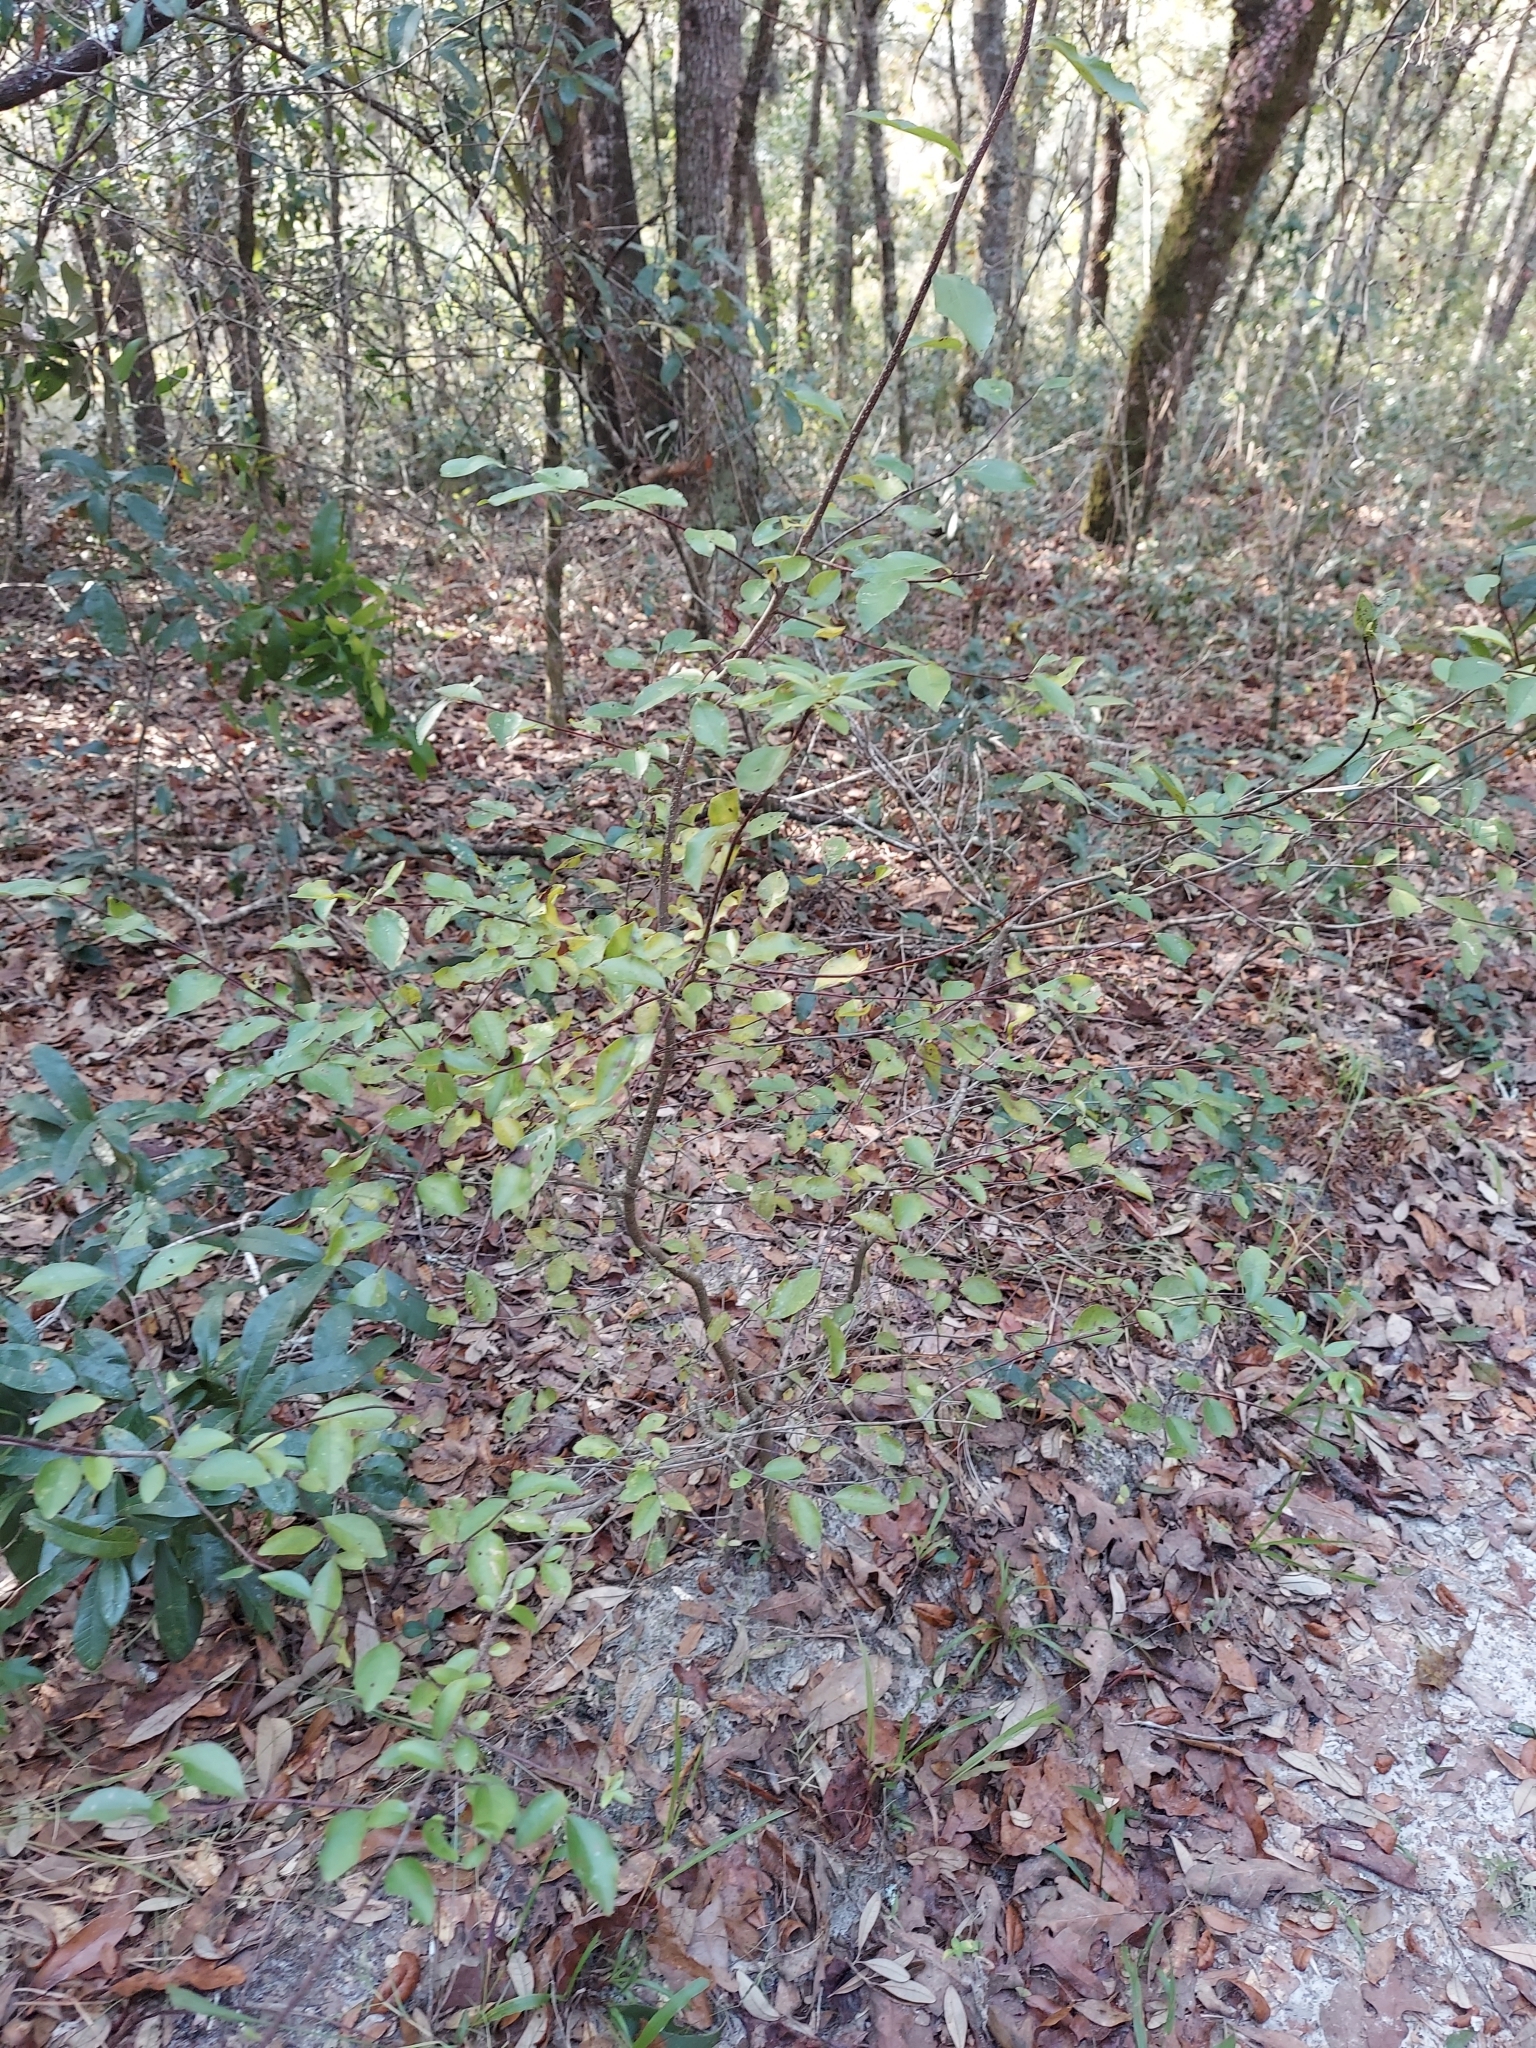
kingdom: Plantae
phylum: Tracheophyta
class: Magnoliopsida
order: Aquifoliales
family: Aquifoliaceae
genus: Ilex
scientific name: Ilex ambigua
